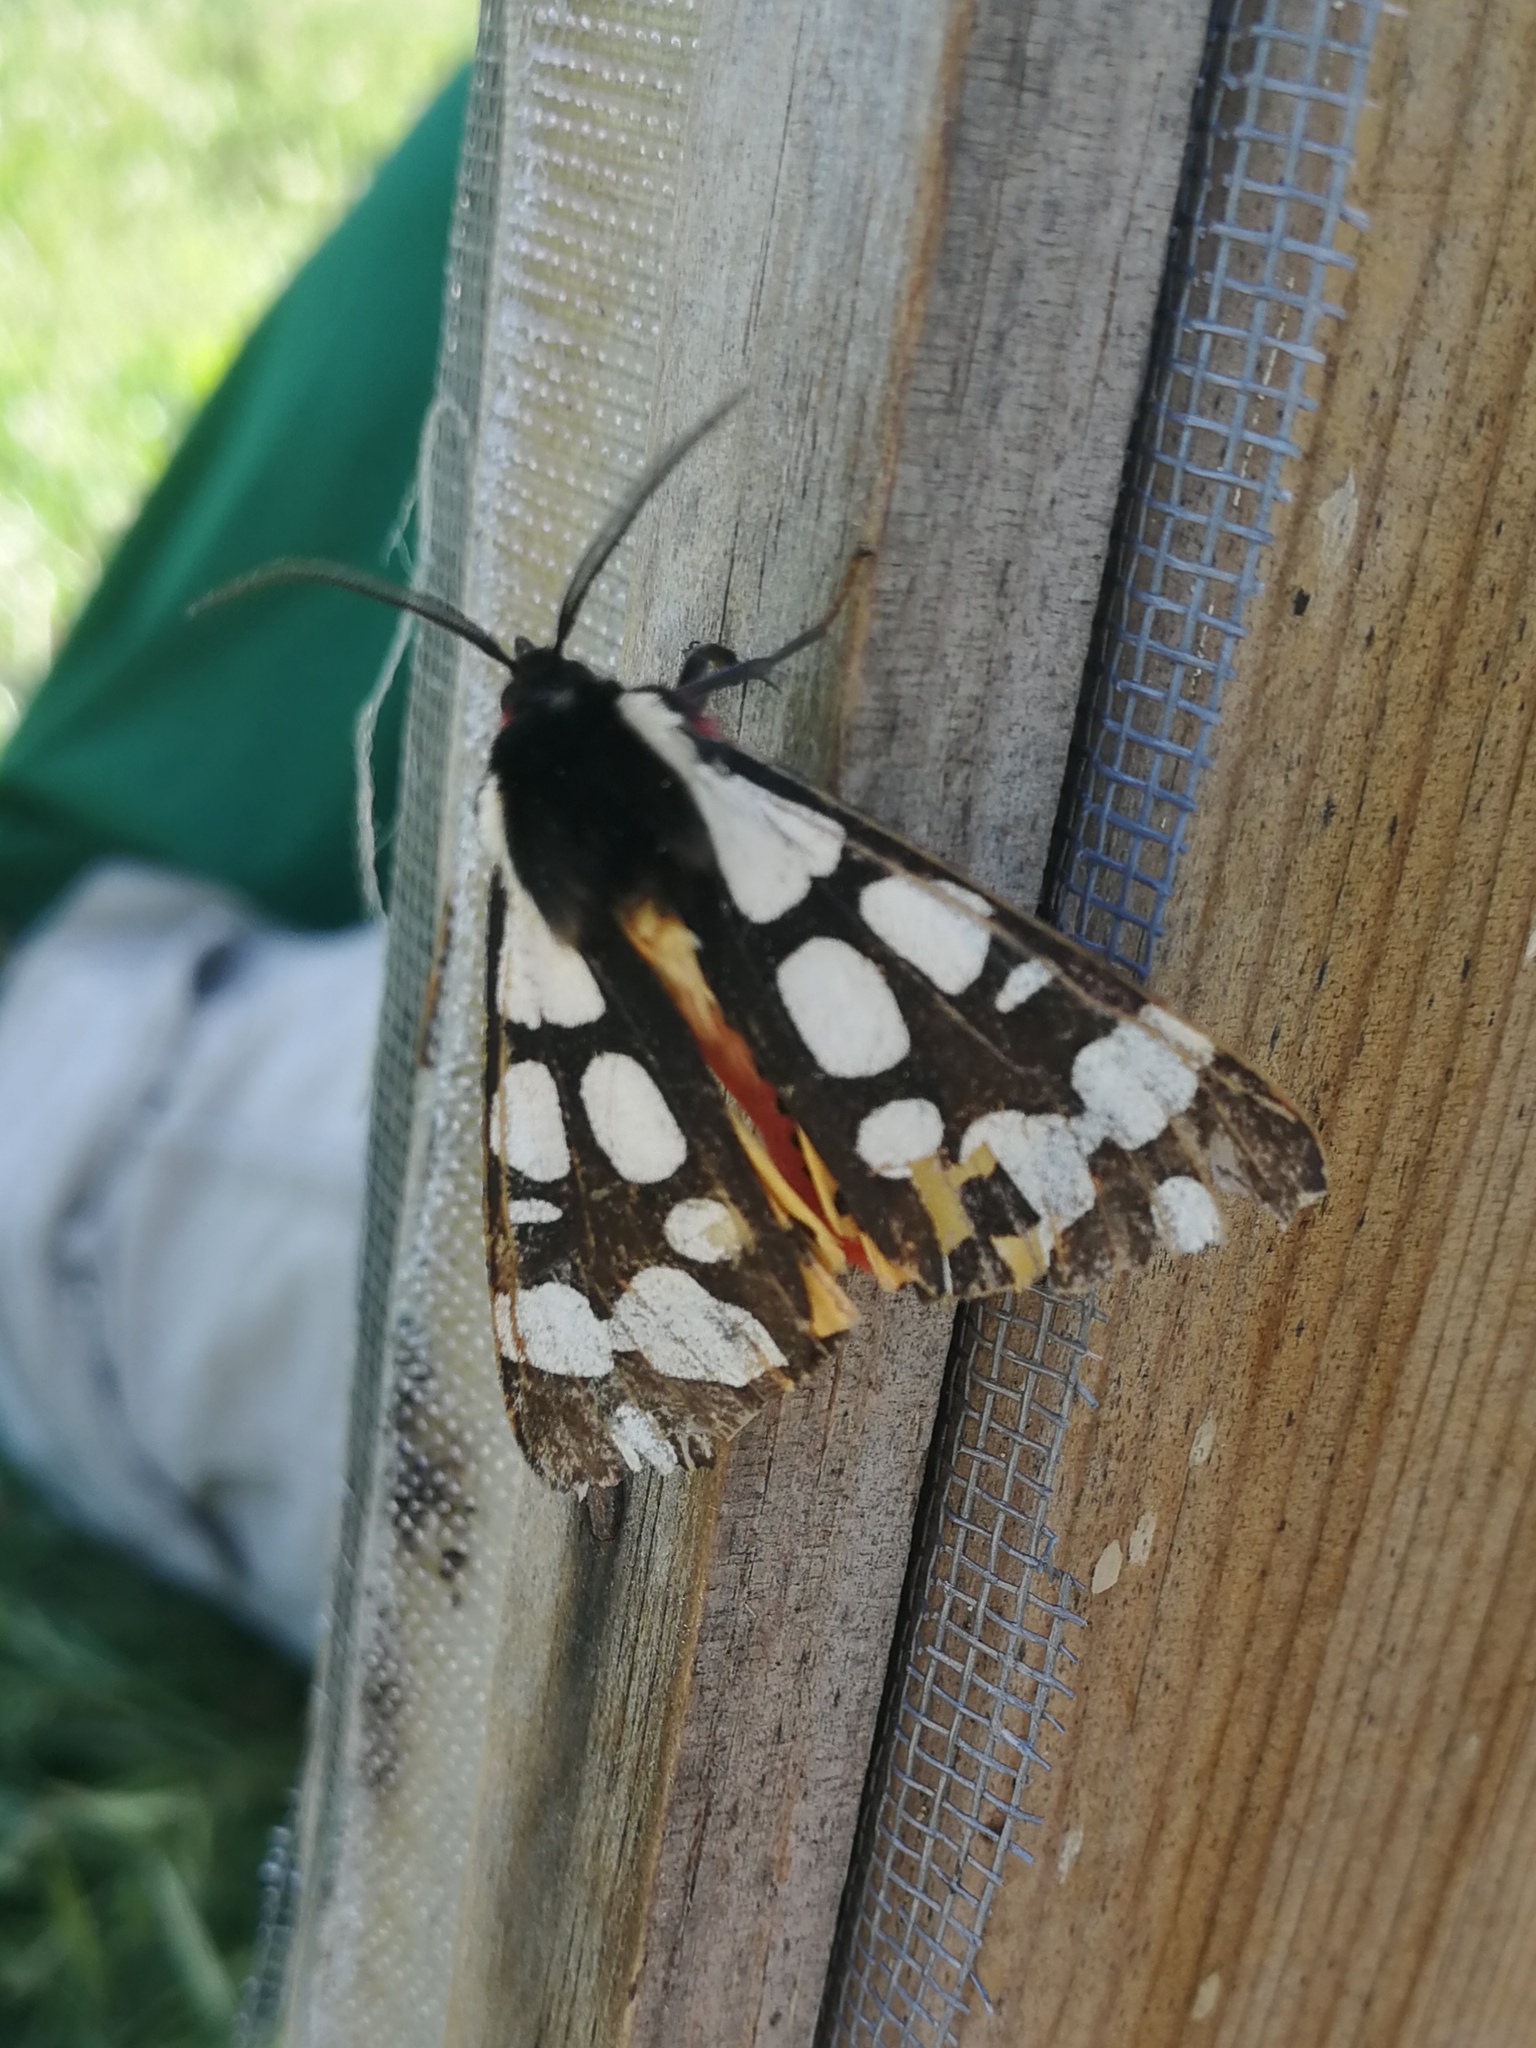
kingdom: Animalia
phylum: Arthropoda
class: Insecta
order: Lepidoptera
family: Erebidae
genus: Epicallia
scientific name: Epicallia villica
